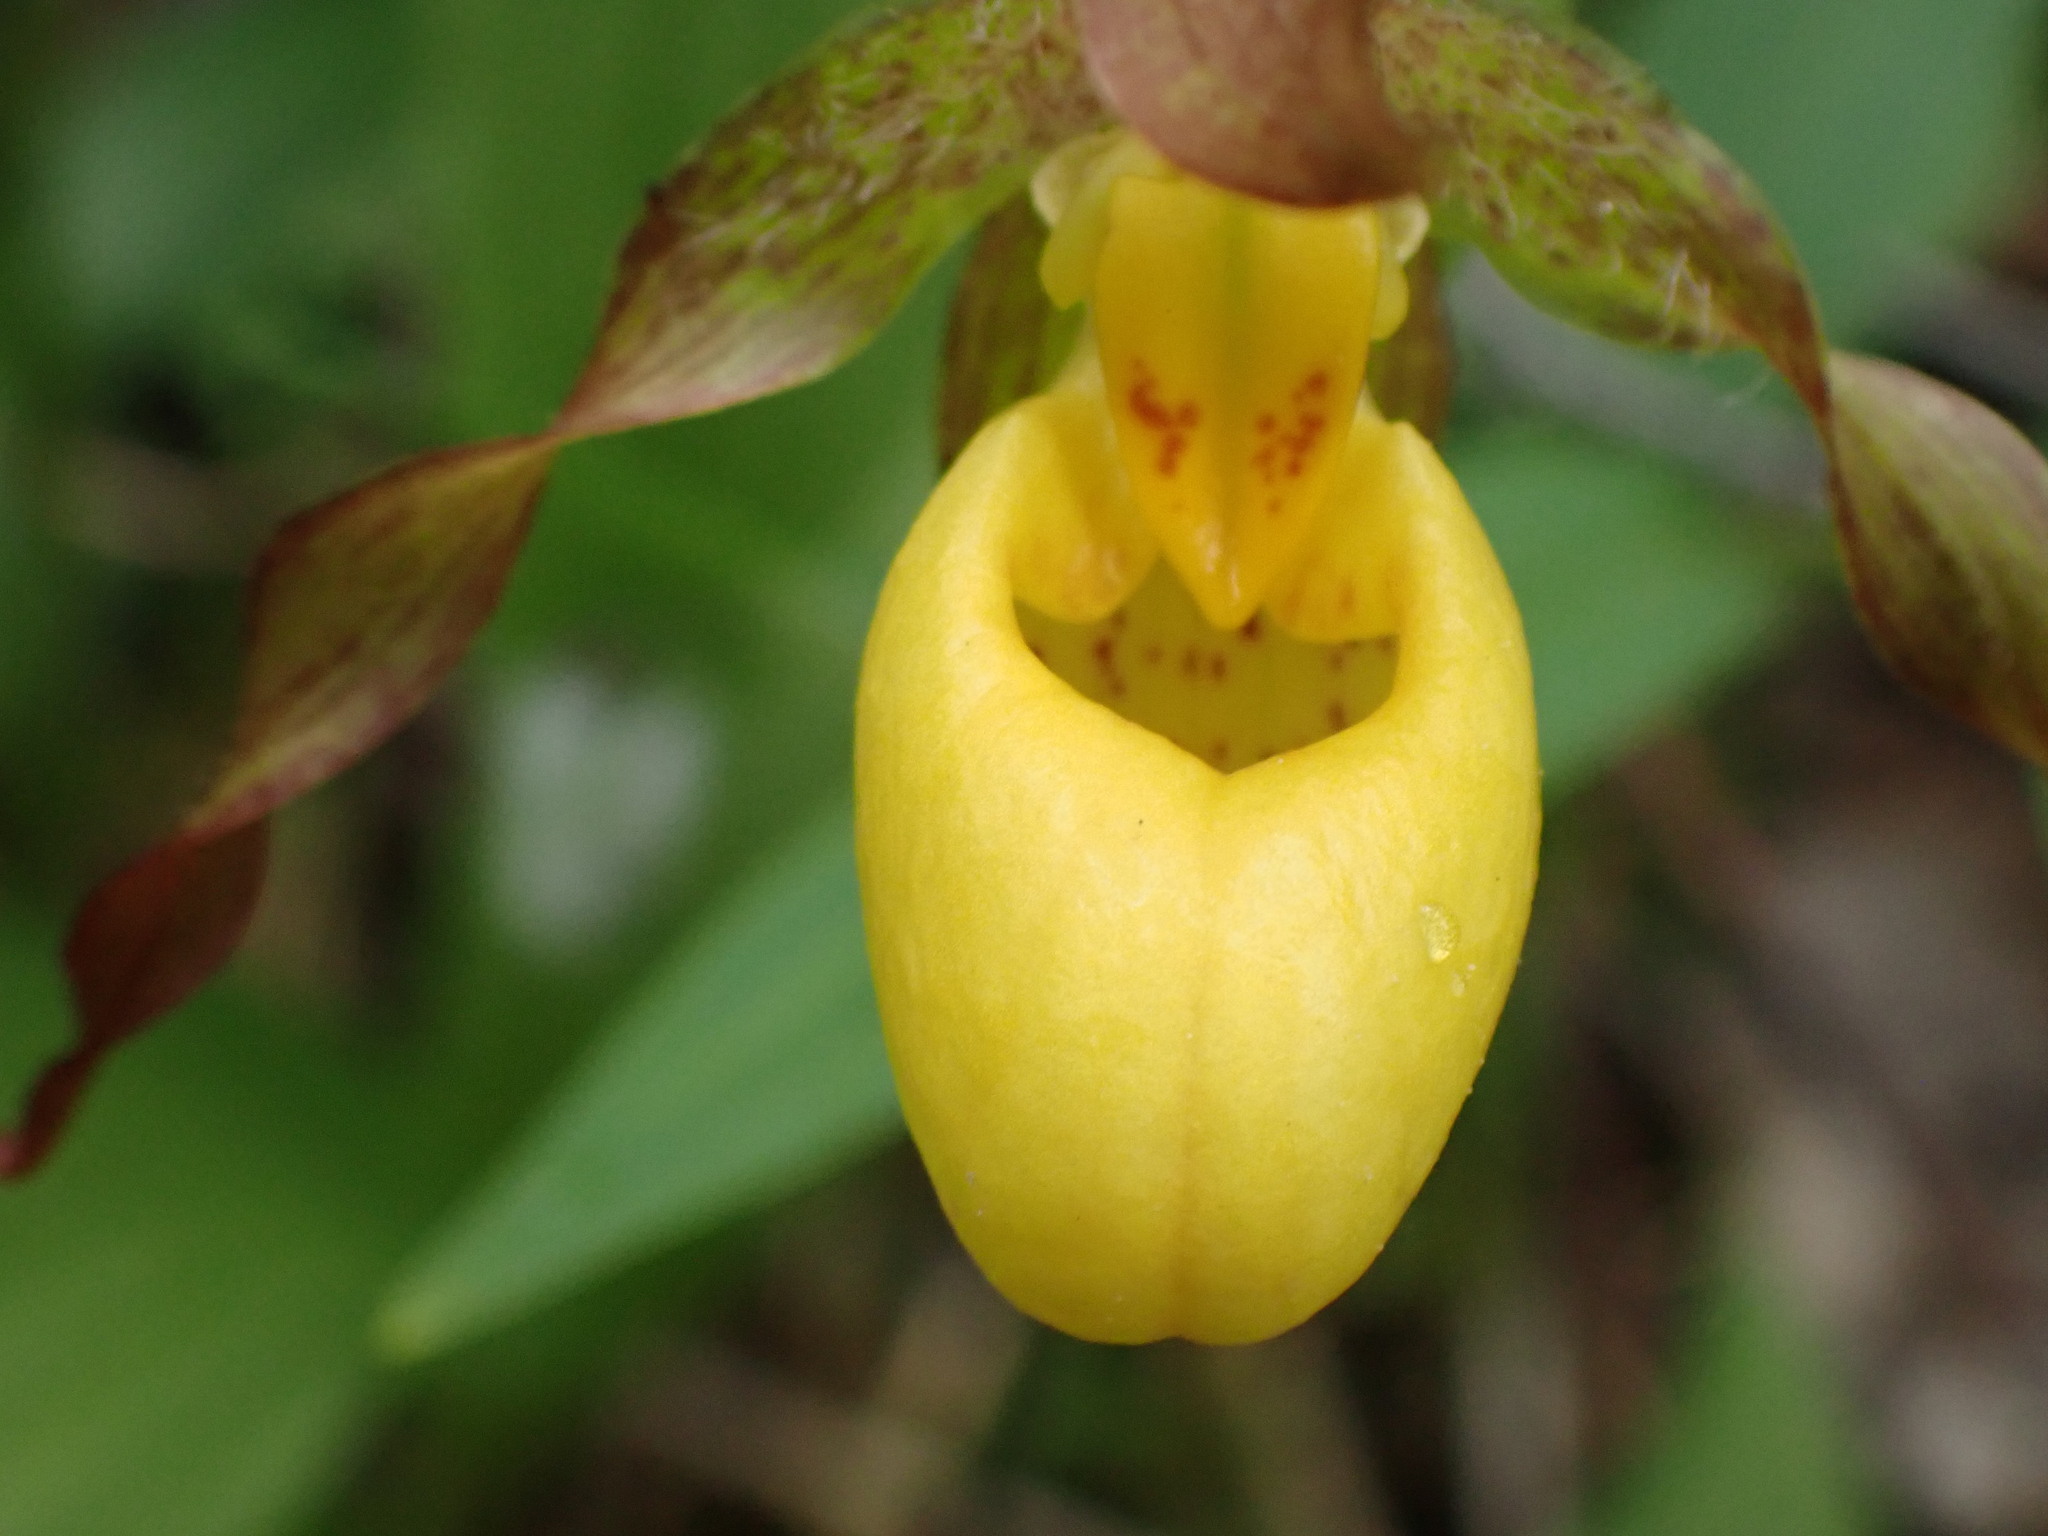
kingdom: Plantae
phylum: Tracheophyta
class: Liliopsida
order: Asparagales
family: Orchidaceae
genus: Cypripedium
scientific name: Cypripedium parviflorum
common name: American yellow lady's-slipper
